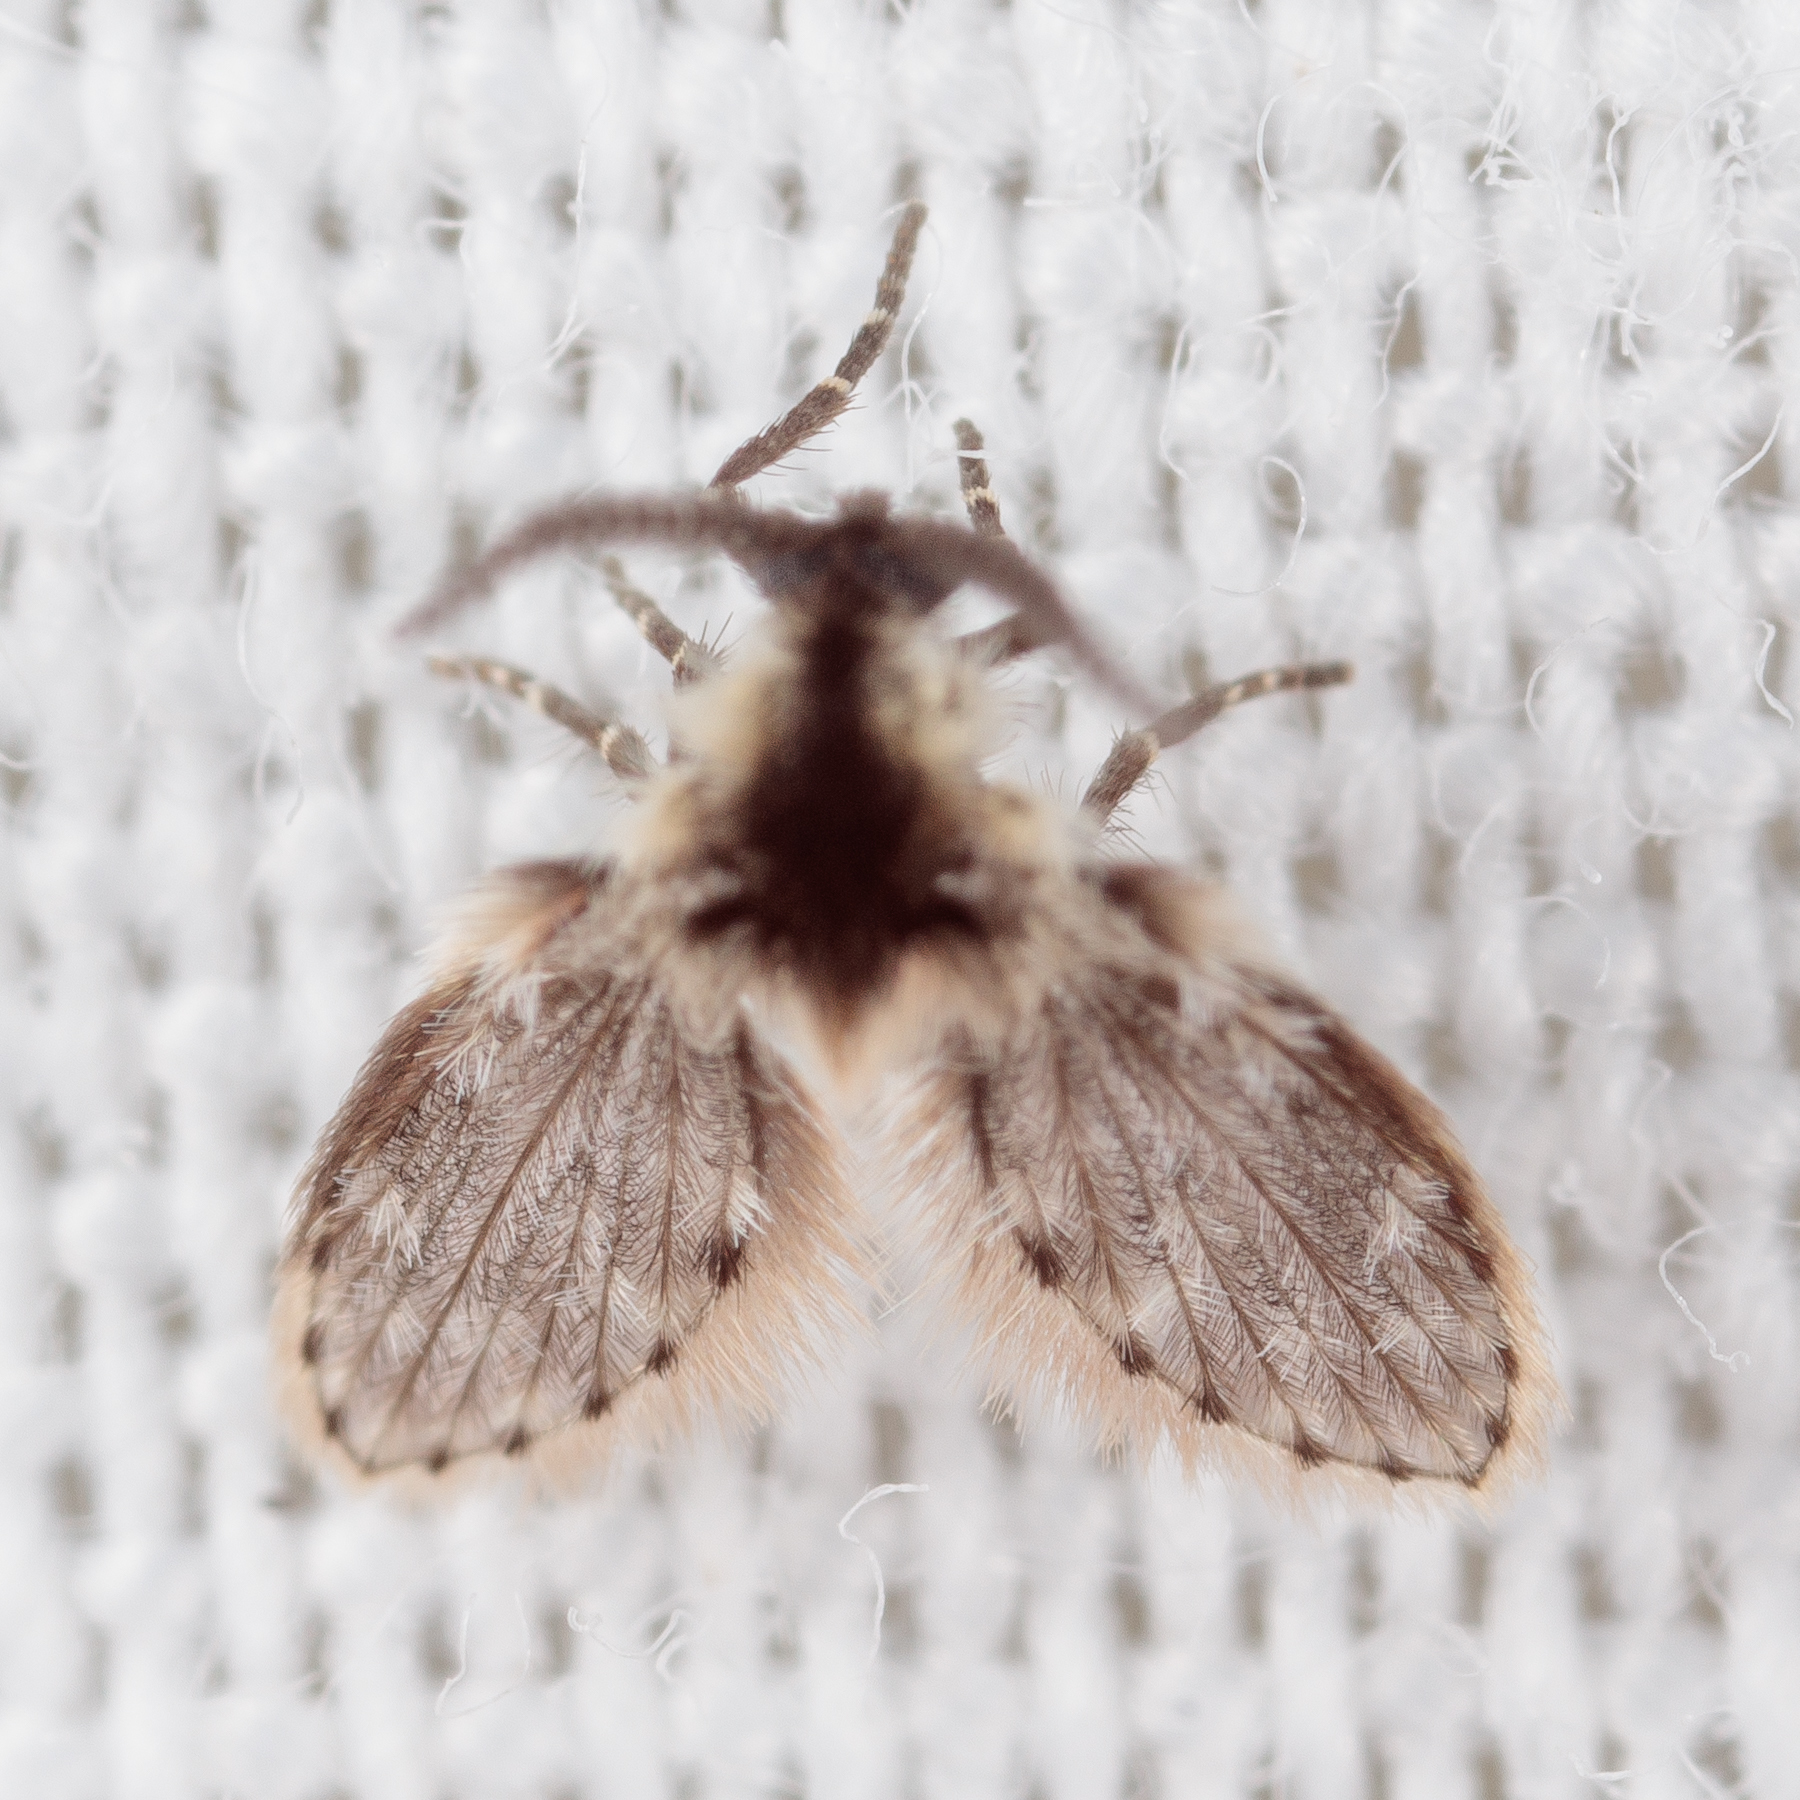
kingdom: Animalia
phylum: Arthropoda
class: Insecta
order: Diptera
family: Psychodidae
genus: Lepiseodina
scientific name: Lepiseodina
